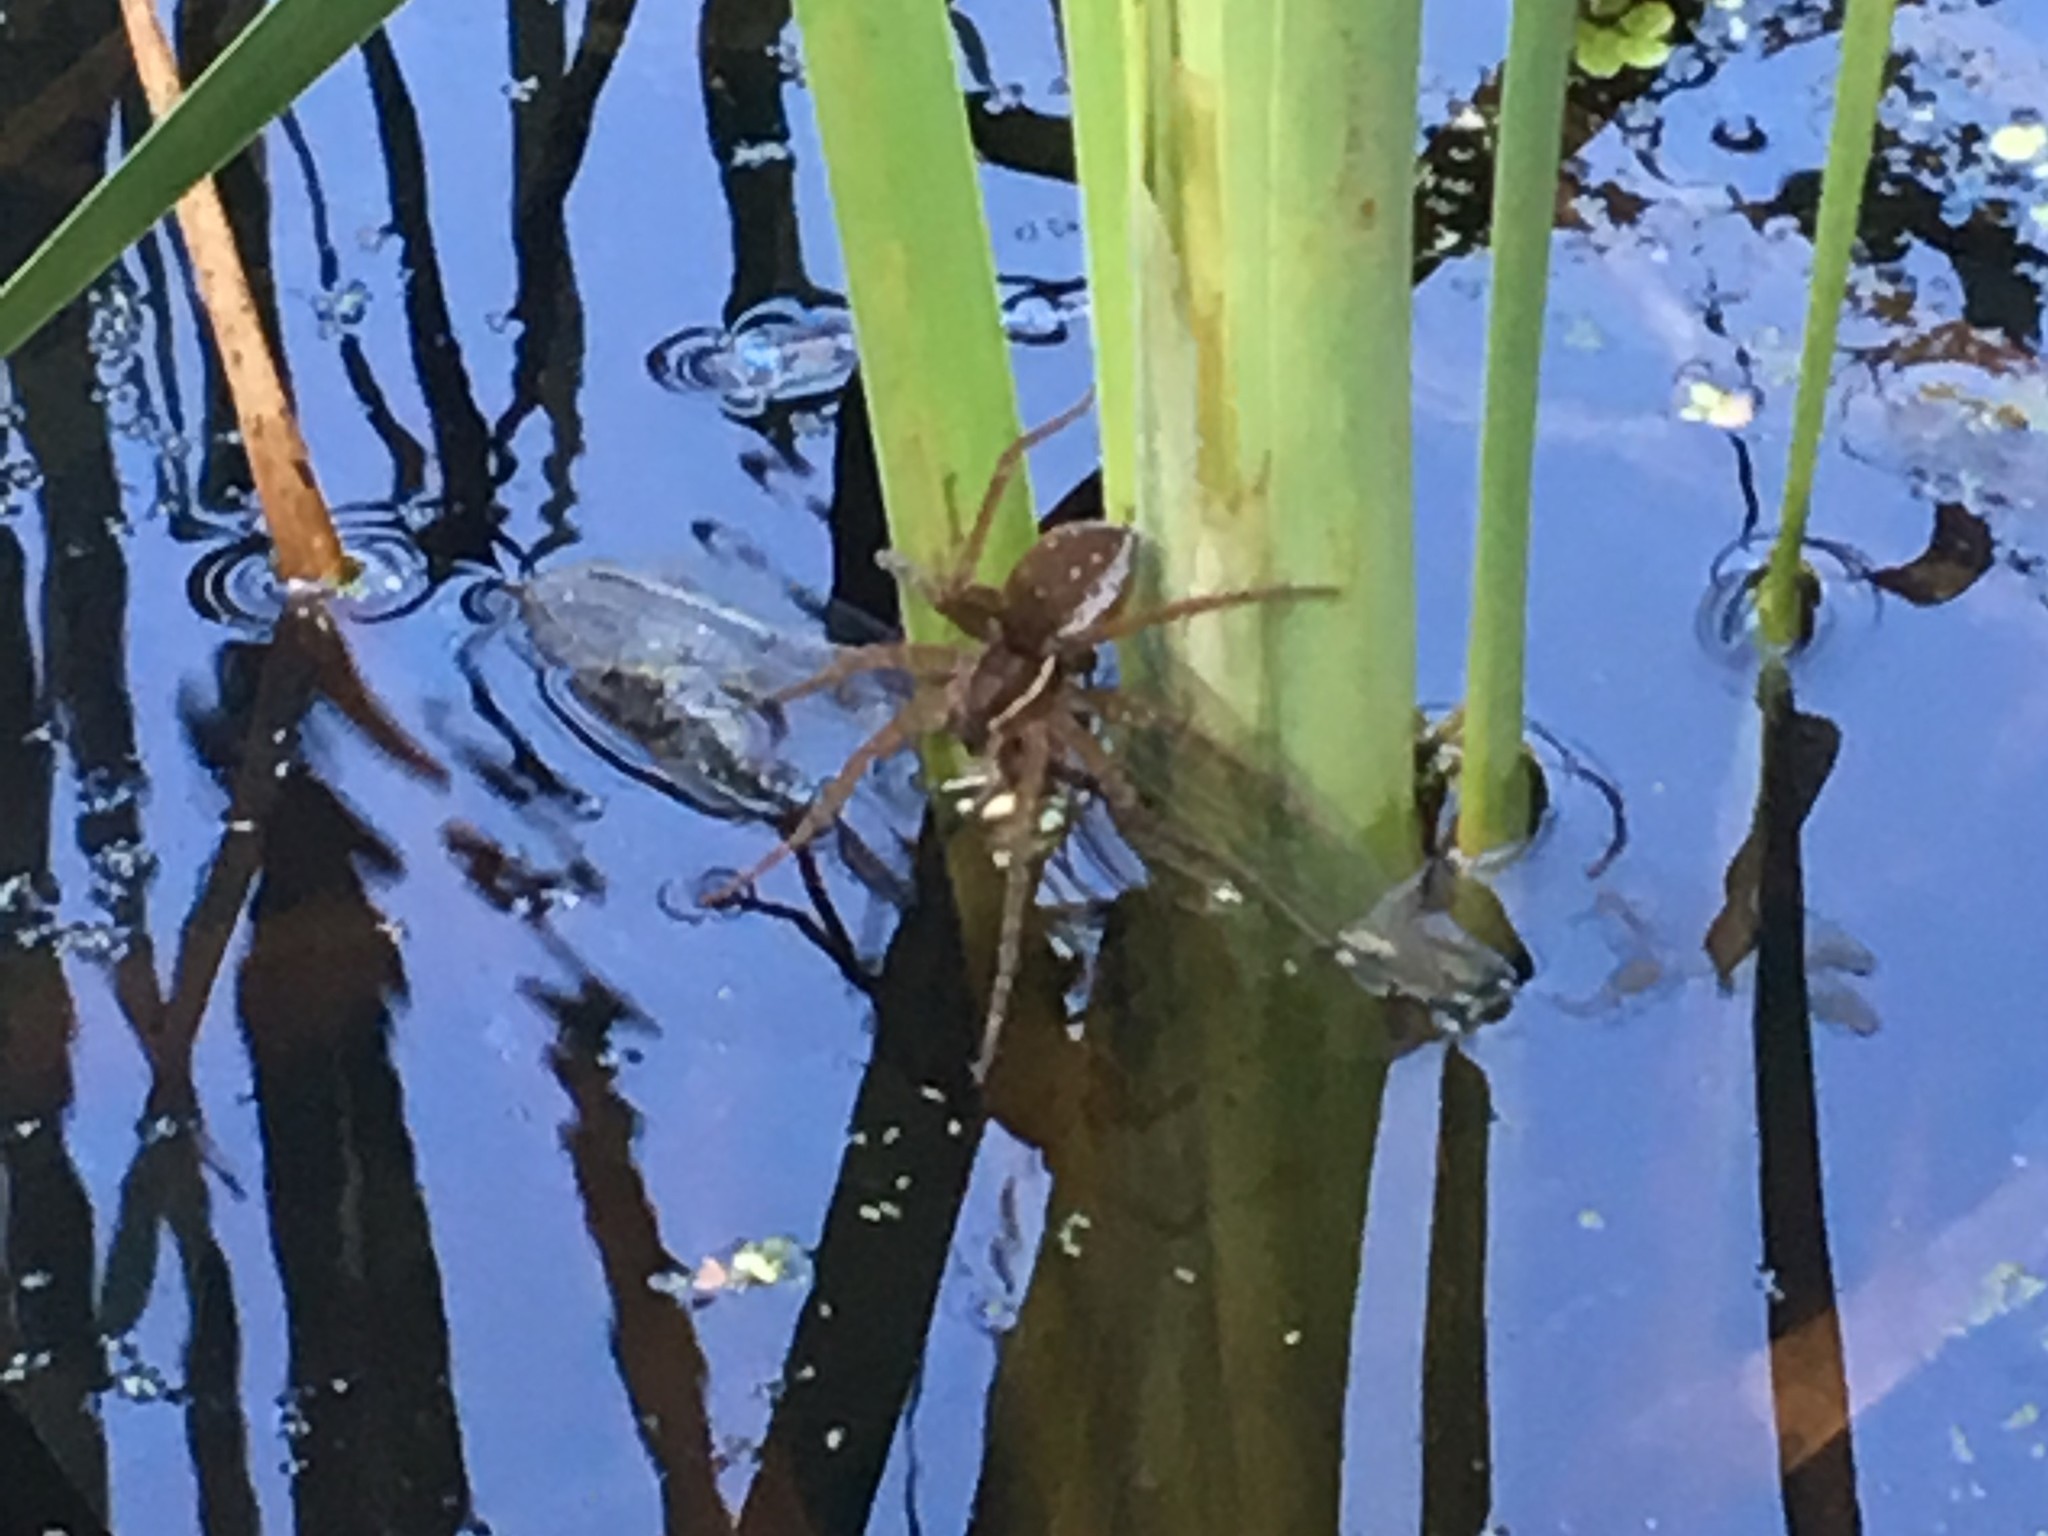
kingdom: Animalia
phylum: Arthropoda
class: Arachnida
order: Araneae
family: Pisauridae
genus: Dolomedes
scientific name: Dolomedes triton
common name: Six-spotted fishing spider
